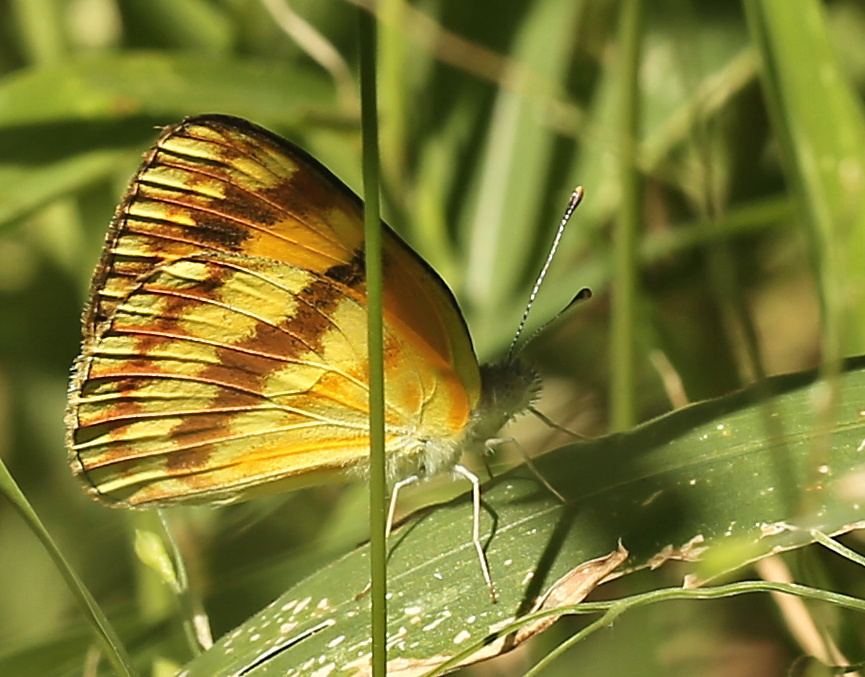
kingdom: Animalia
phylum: Arthropoda
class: Insecta
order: Lepidoptera
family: Pieridae
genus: Colotis
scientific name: Colotis vesta
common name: Veined golden arab
